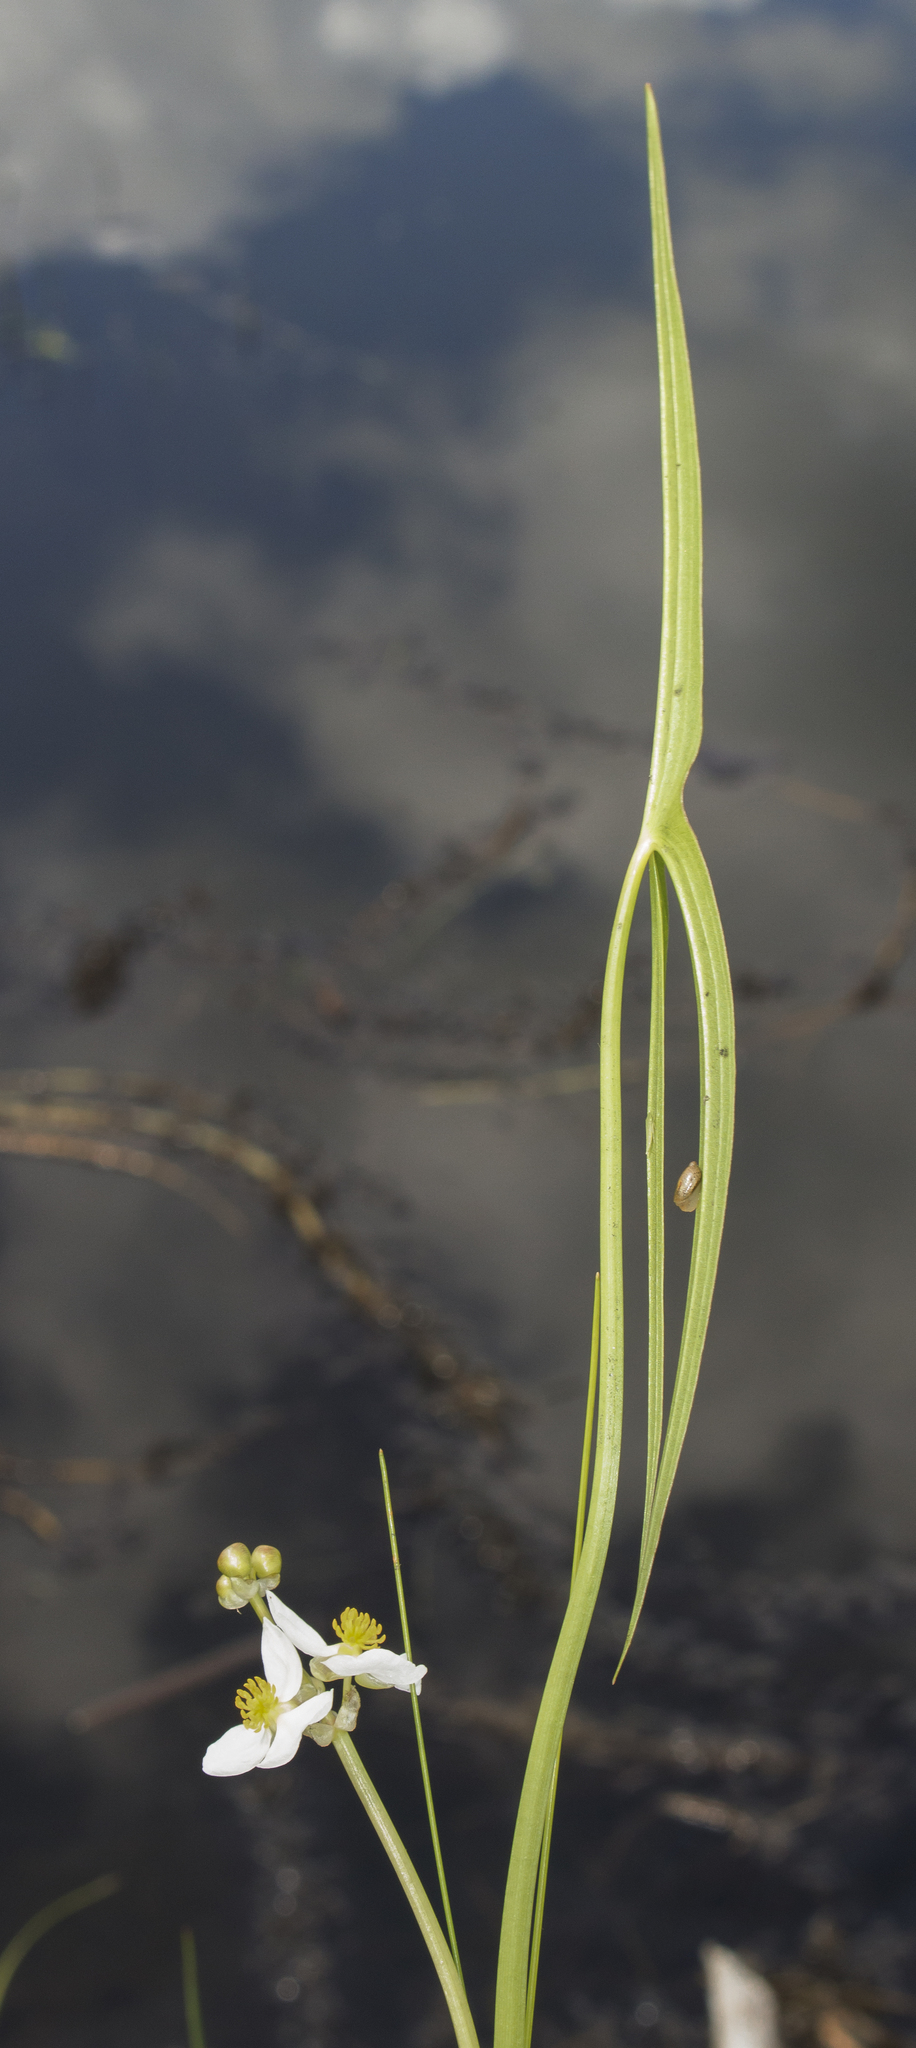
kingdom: Plantae
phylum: Tracheophyta
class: Liliopsida
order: Alismatales
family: Alismataceae
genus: Sagittaria
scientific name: Sagittaria latifolia
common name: Duck-potato
